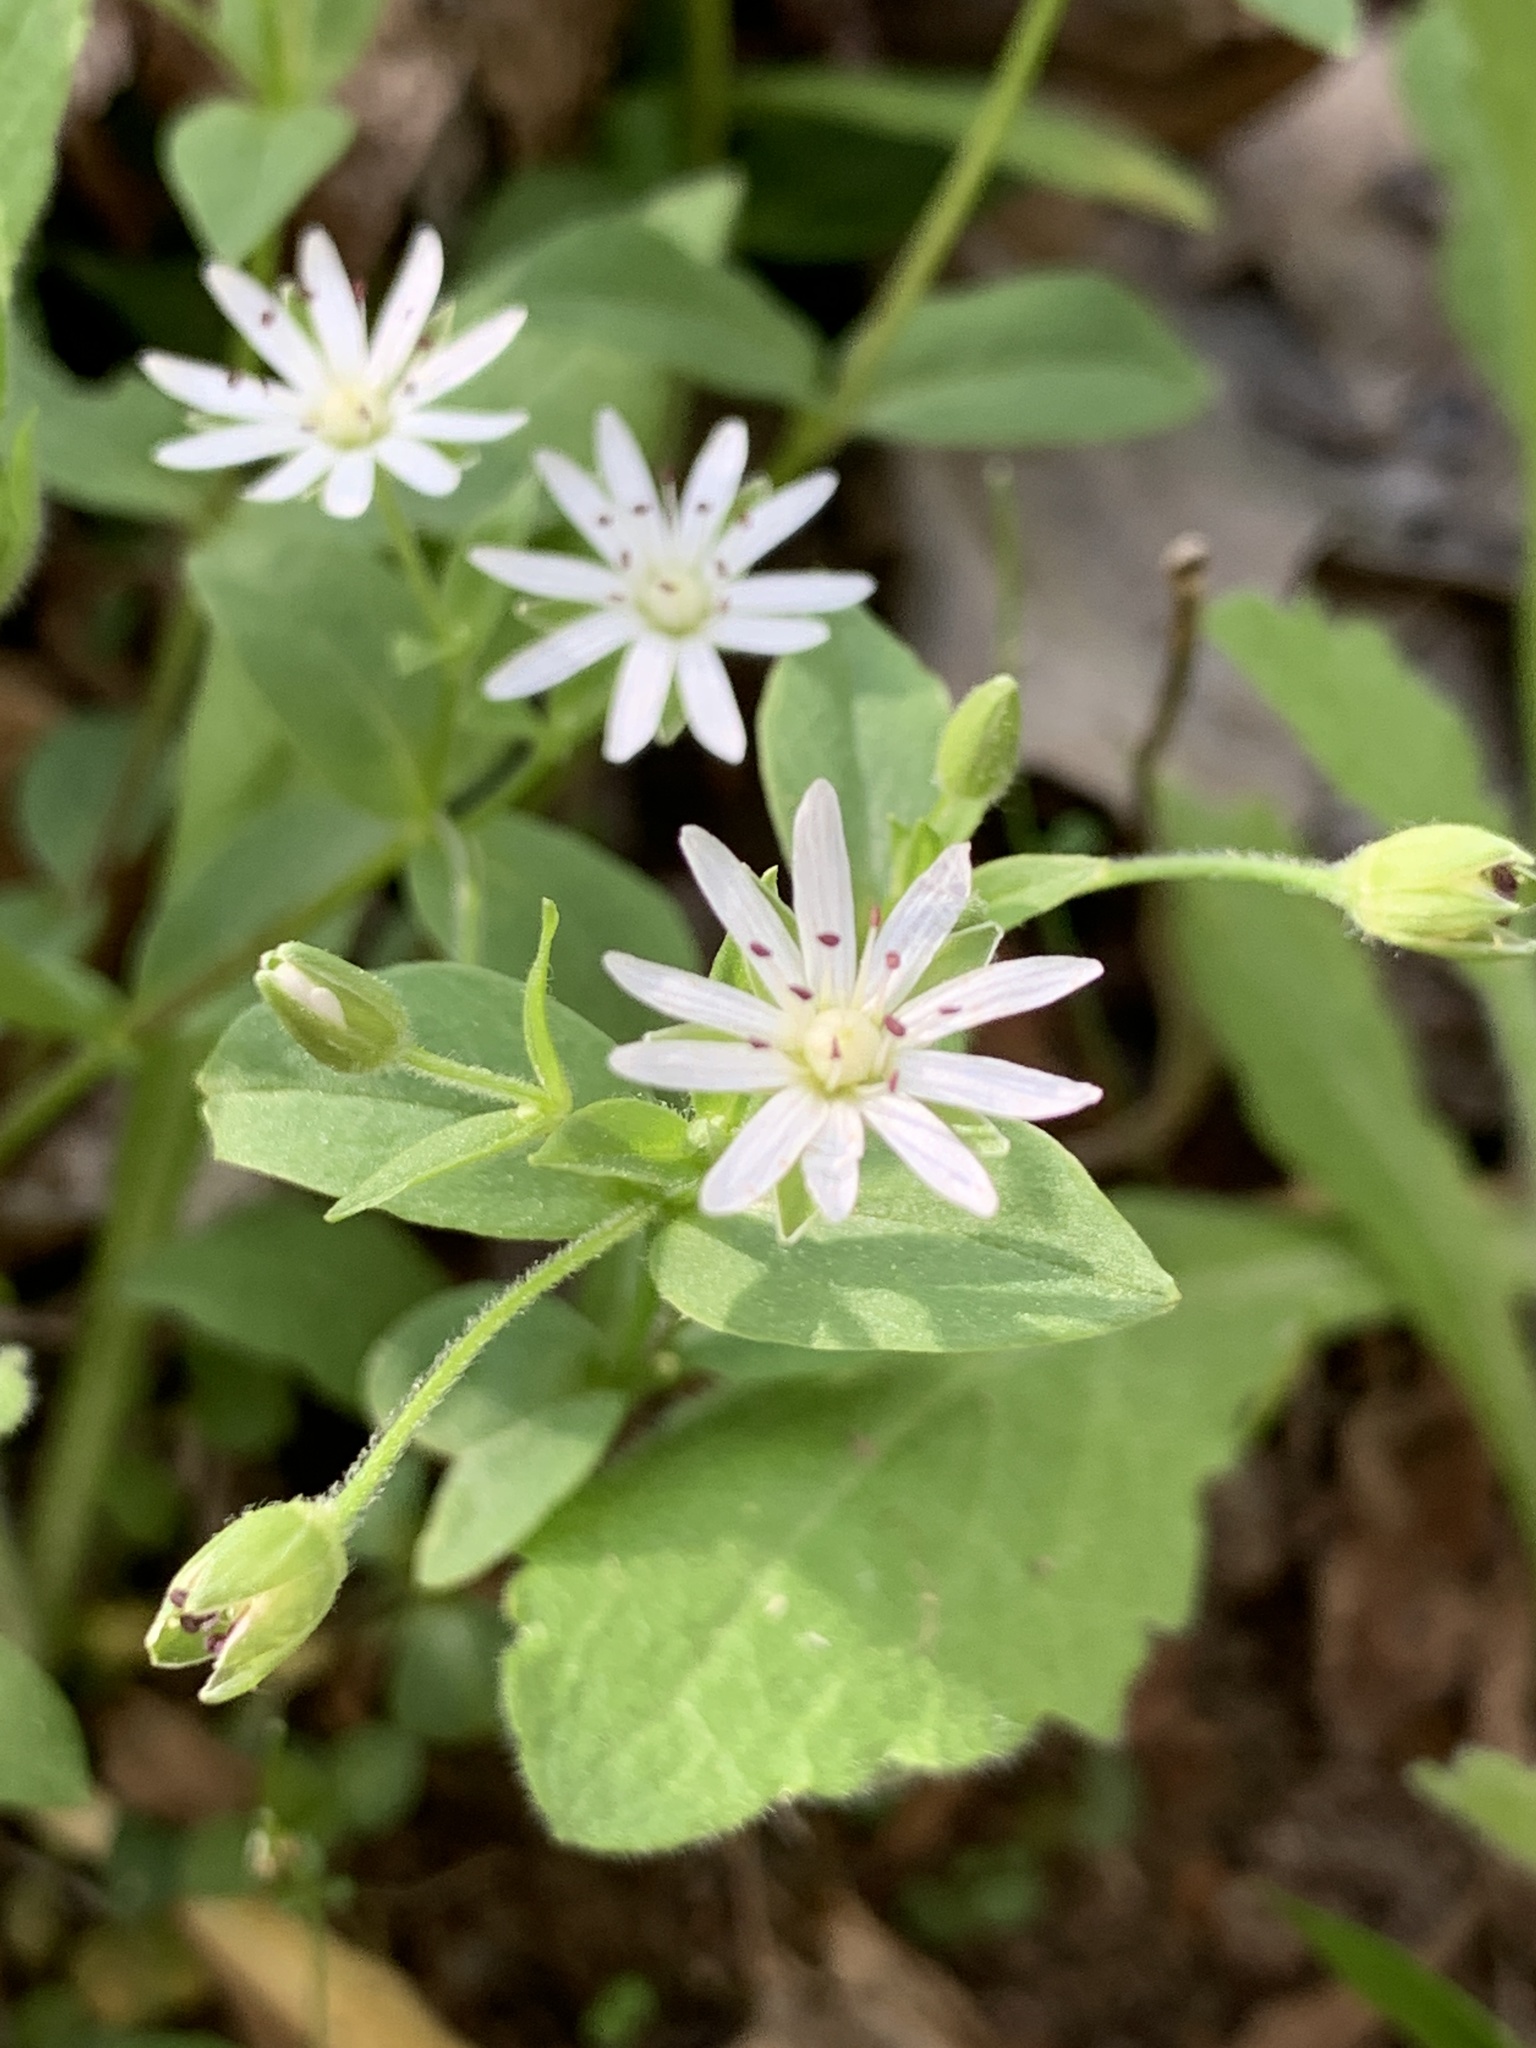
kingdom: Plantae
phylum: Tracheophyta
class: Magnoliopsida
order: Caryophyllales
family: Caryophyllaceae
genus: Stellaria
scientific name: Stellaria pubera
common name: Star chickweed
